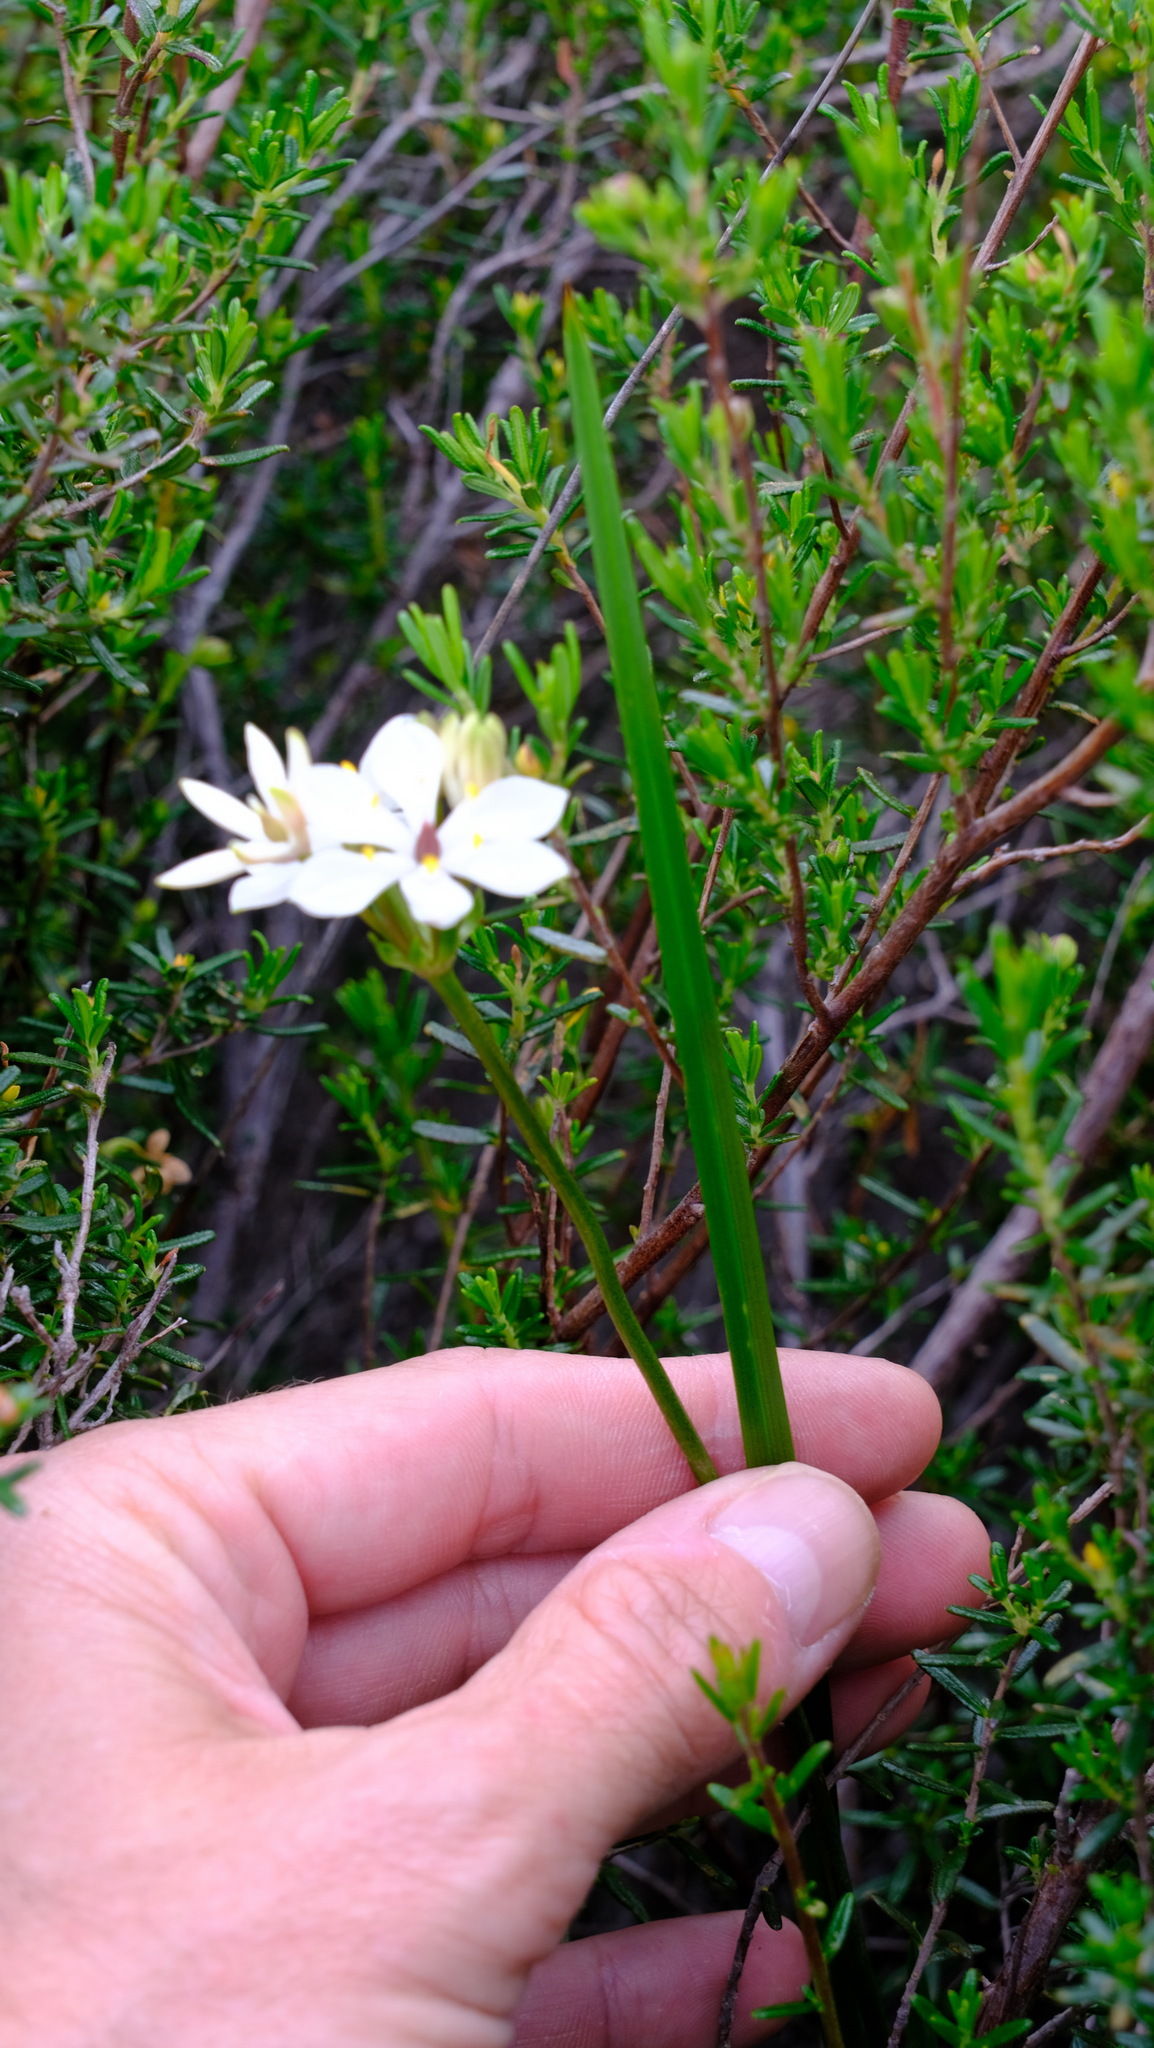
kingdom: Plantae
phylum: Tracheophyta
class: Liliopsida
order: Liliales
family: Colchicaceae
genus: Burchardia
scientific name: Burchardia congesta
